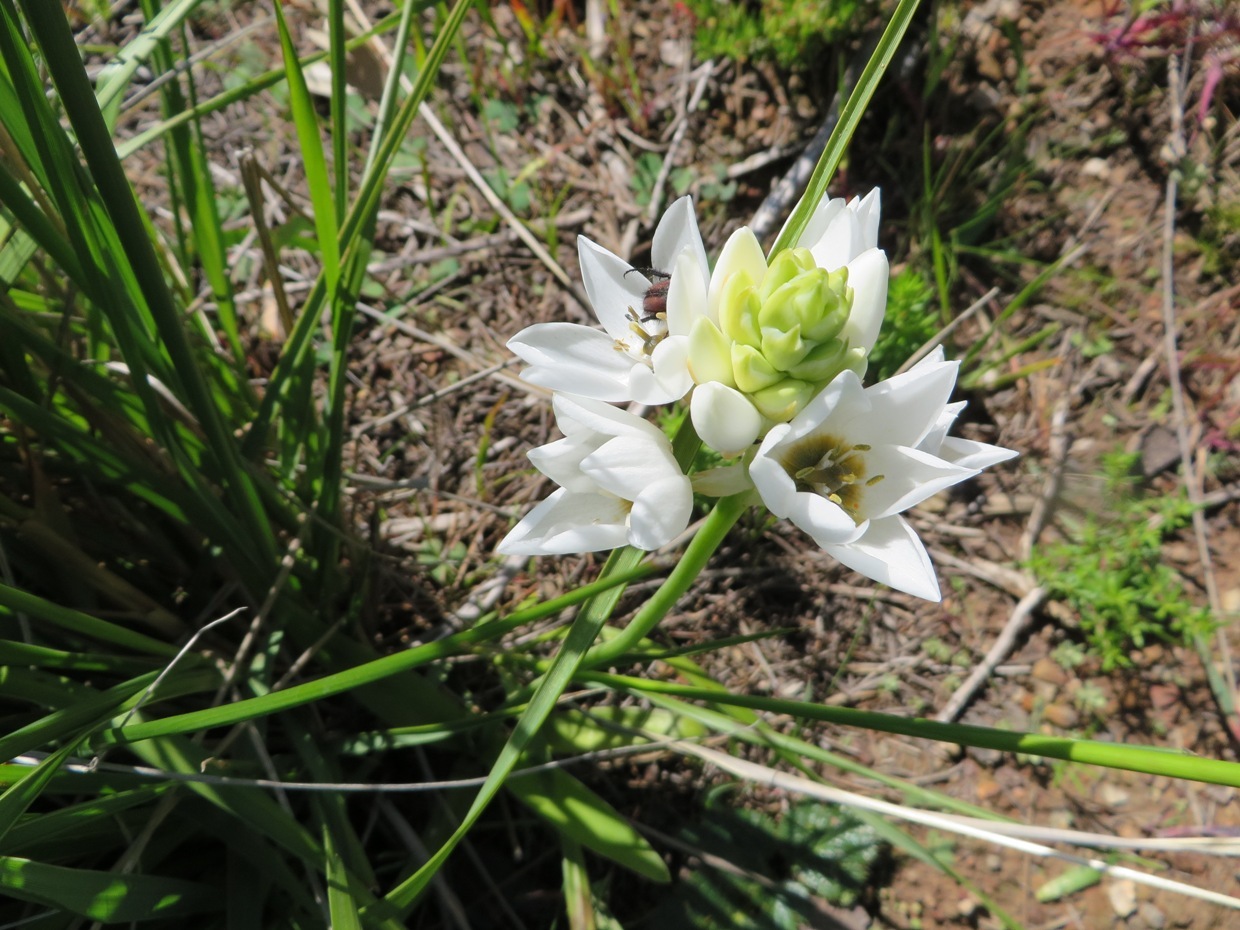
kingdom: Plantae
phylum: Tracheophyta
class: Liliopsida
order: Asparagales
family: Asparagaceae
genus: Ornithogalum
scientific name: Ornithogalum thyrsoides
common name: Chincherinchee
